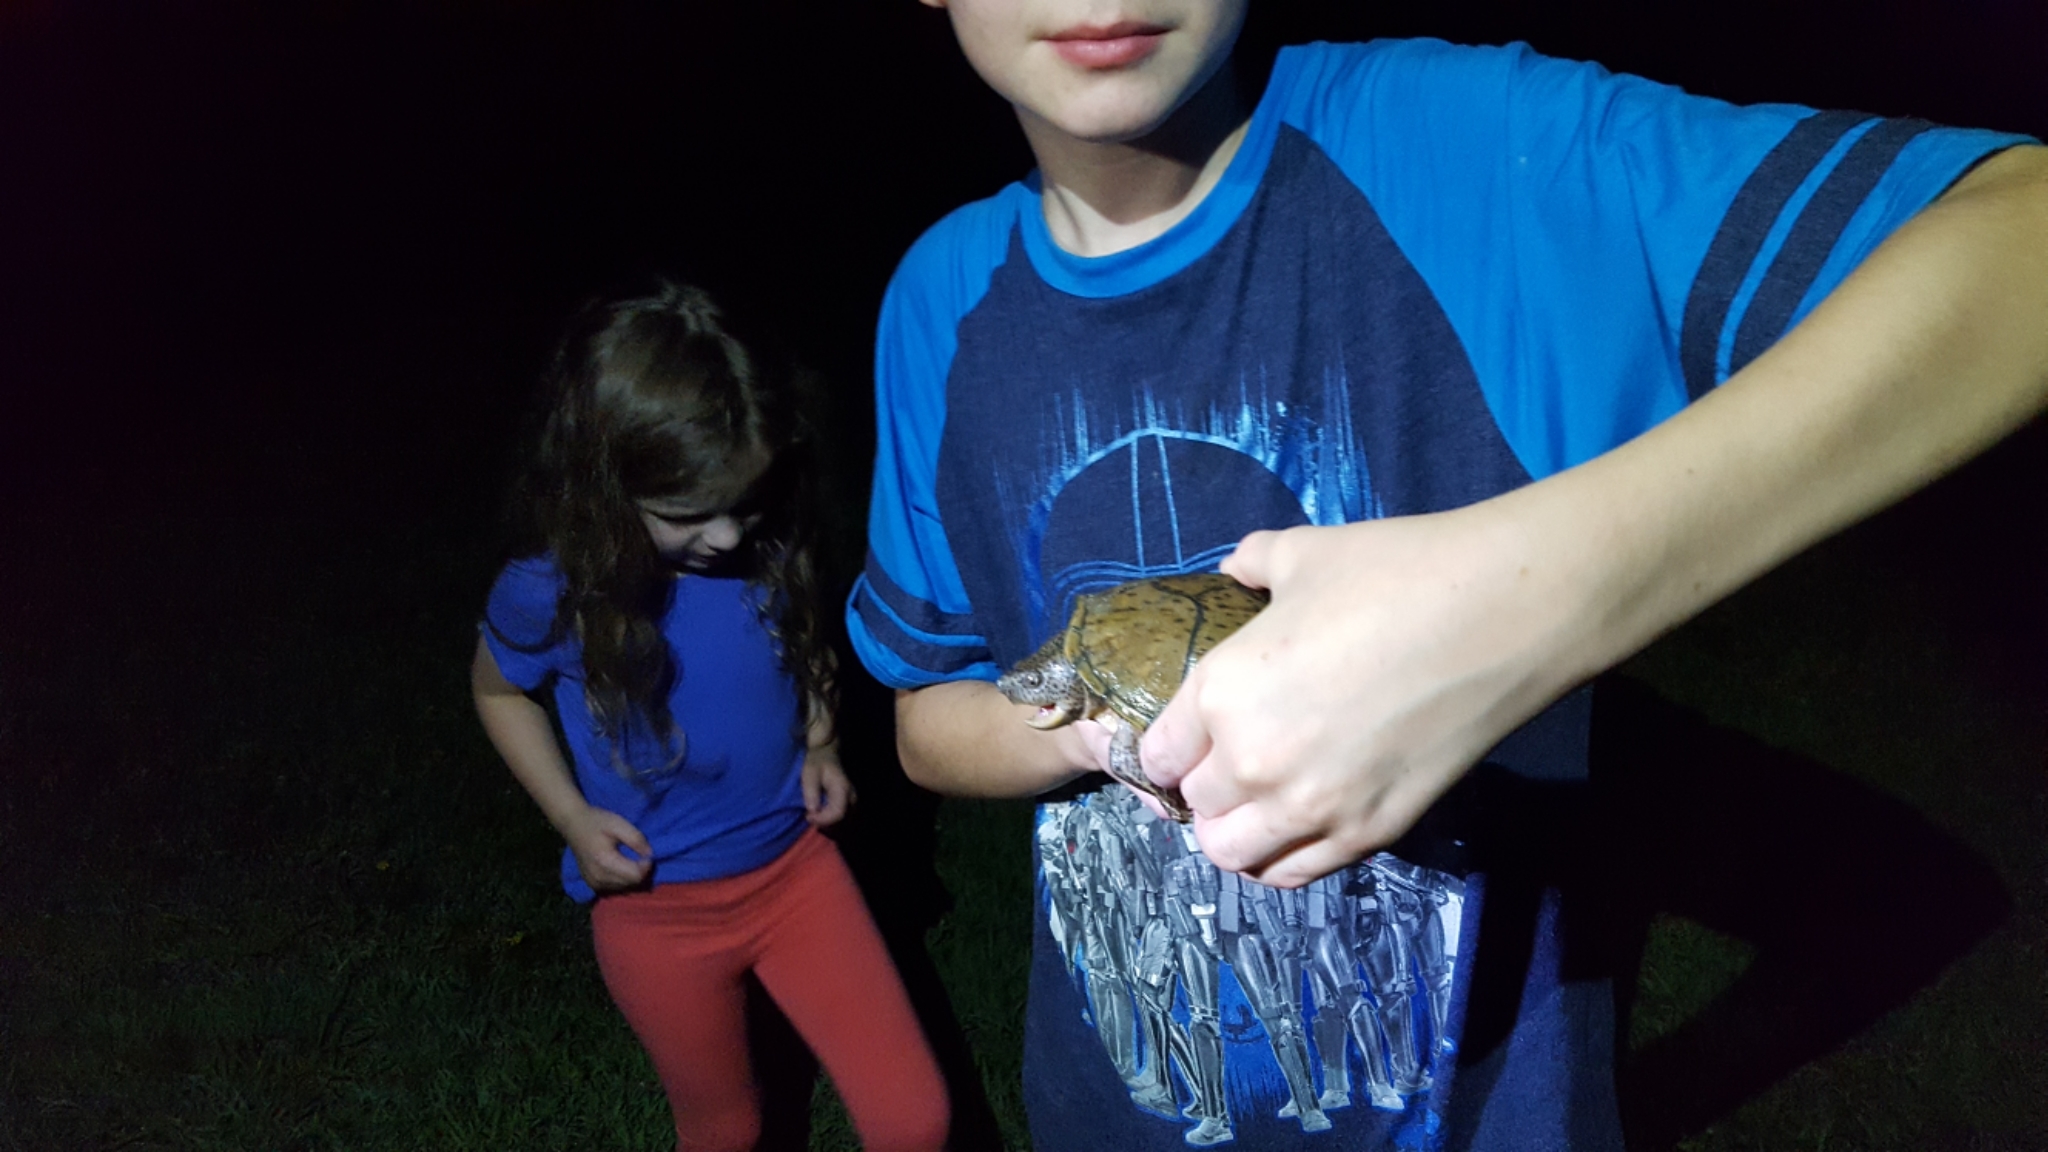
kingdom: Animalia
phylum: Chordata
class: Testudines
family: Kinosternidae
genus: Sternotherus
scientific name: Sternotherus carinatus
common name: Razor-backed musk turtle
